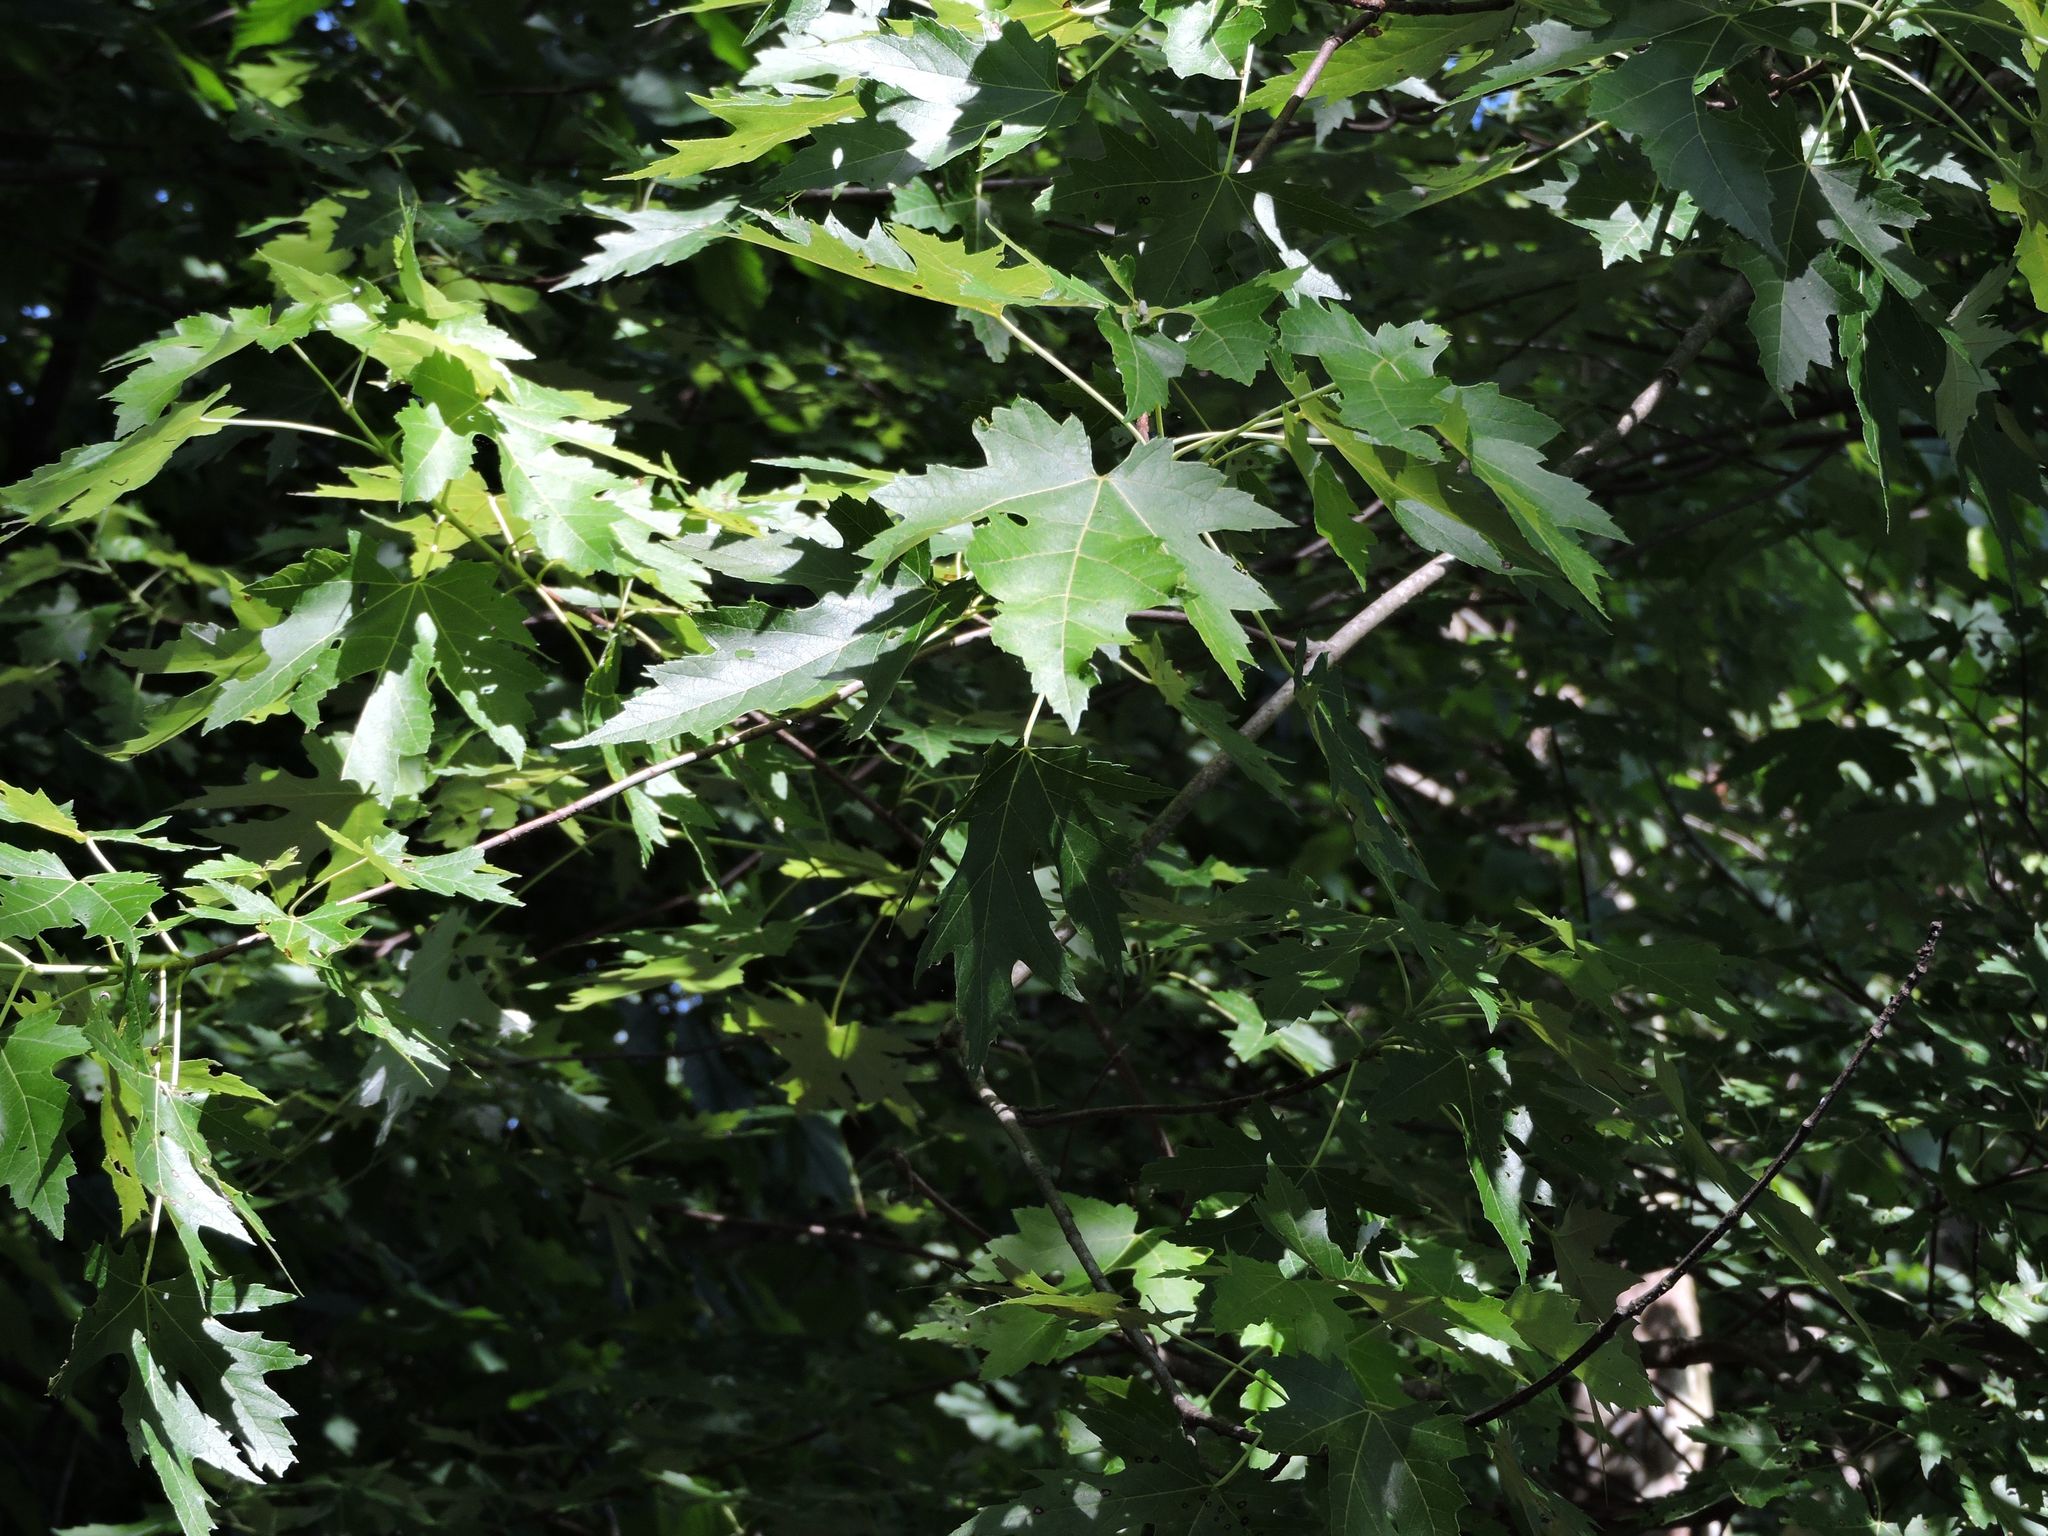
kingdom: Plantae
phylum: Tracheophyta
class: Magnoliopsida
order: Sapindales
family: Sapindaceae
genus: Acer
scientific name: Acer saccharinum
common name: Silver maple
